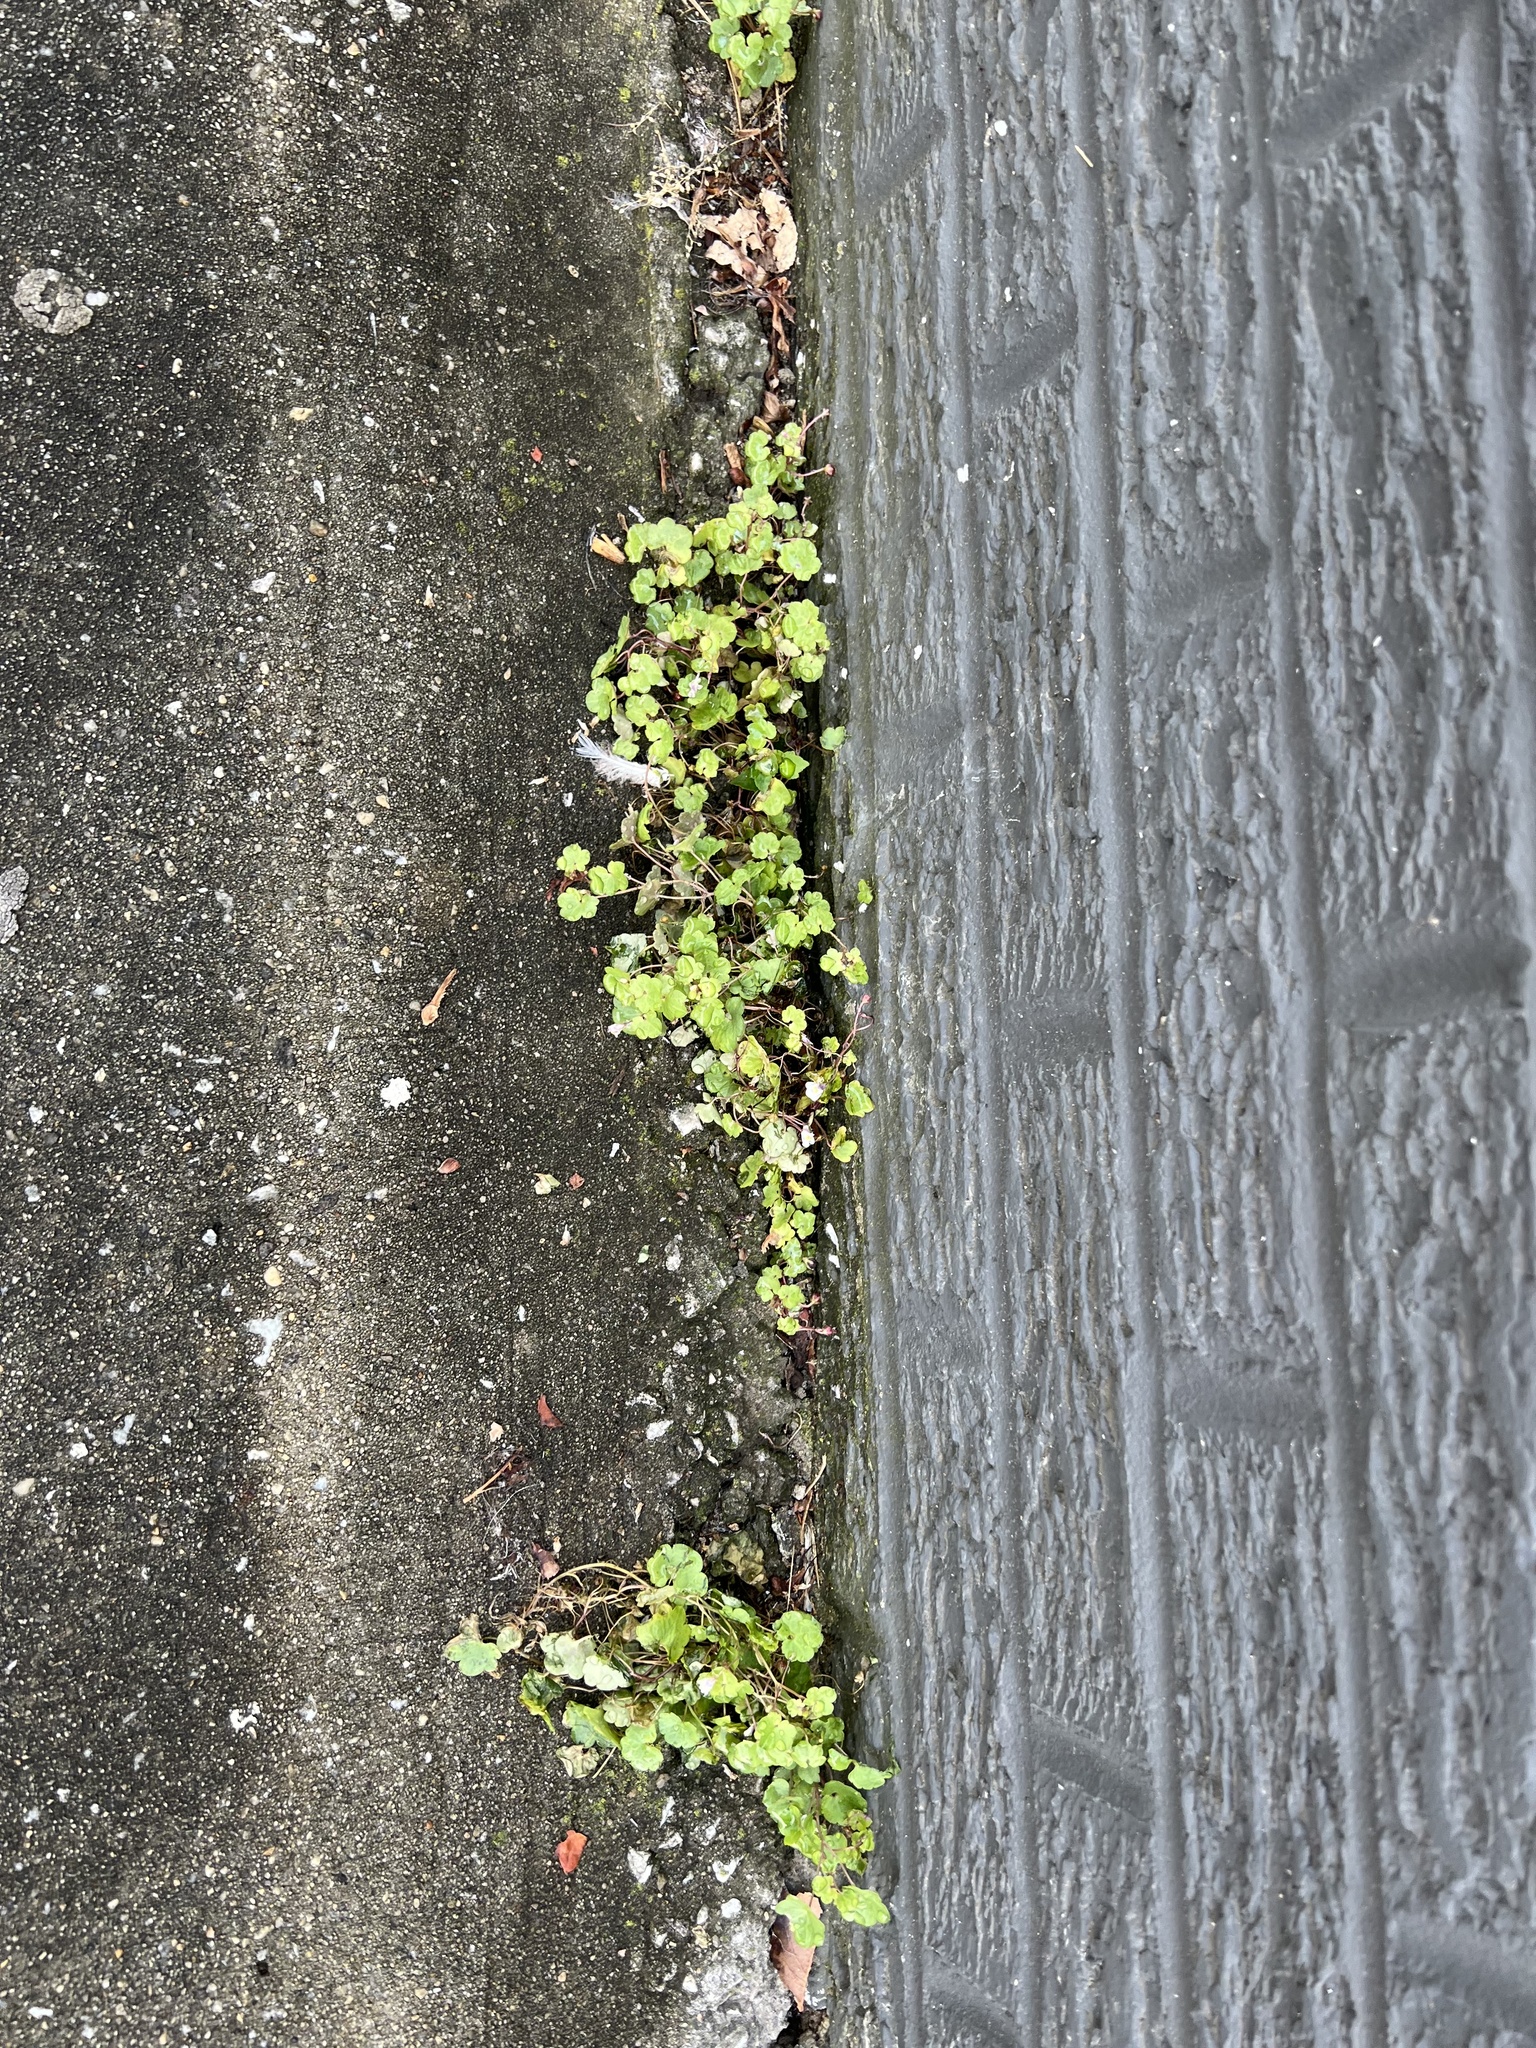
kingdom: Plantae
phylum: Tracheophyta
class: Magnoliopsida
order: Lamiales
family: Plantaginaceae
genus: Cymbalaria
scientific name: Cymbalaria muralis
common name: Ivy-leaved toadflax
